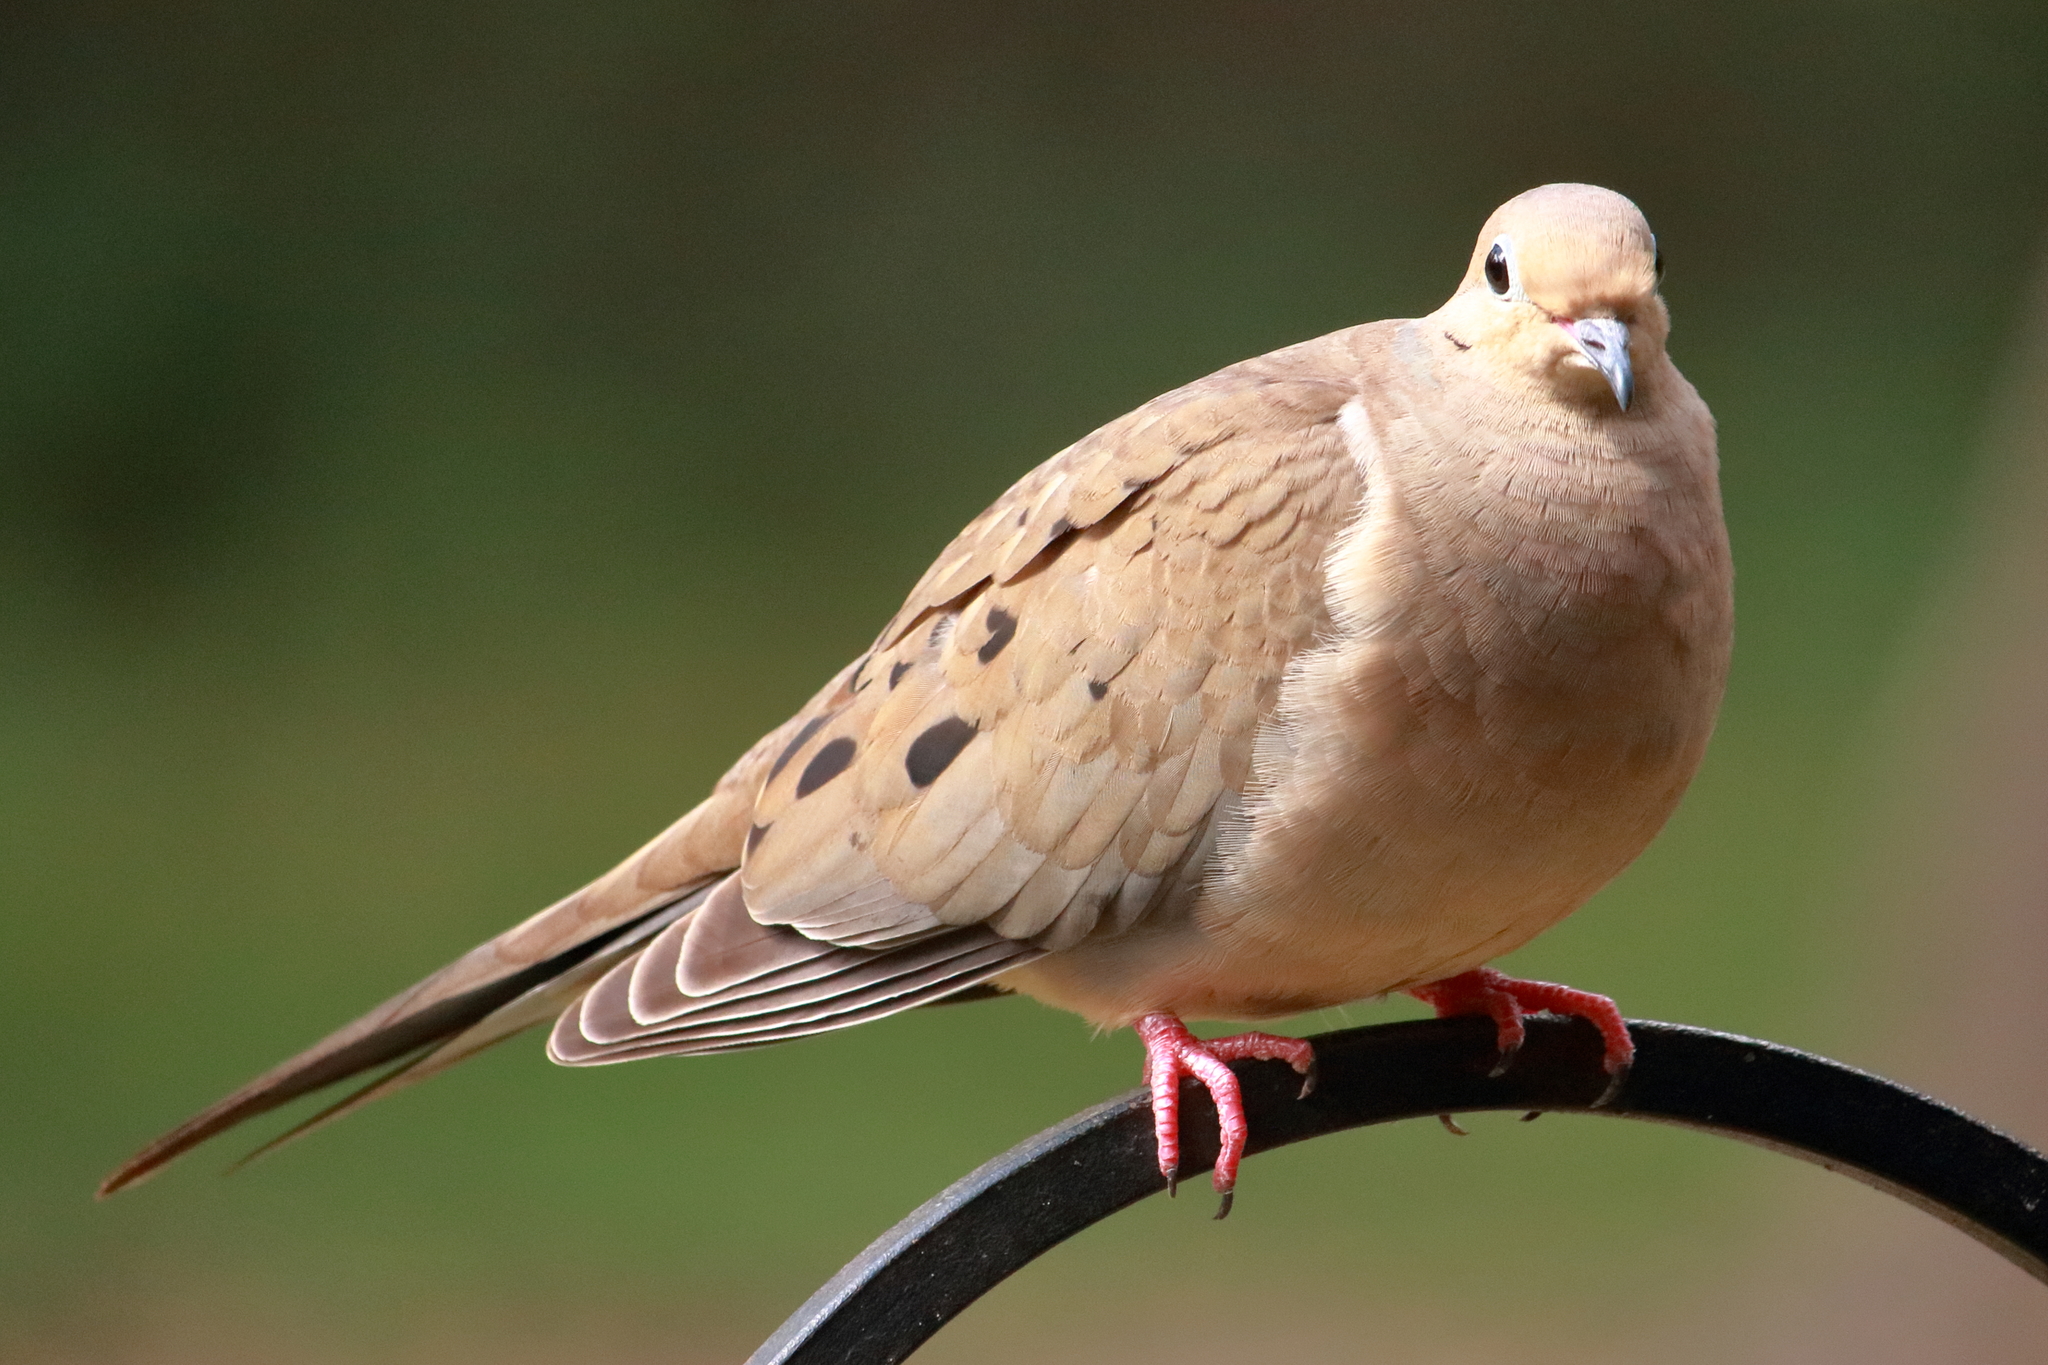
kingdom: Animalia
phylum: Chordata
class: Aves
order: Columbiformes
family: Columbidae
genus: Zenaida
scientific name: Zenaida macroura
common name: Mourning dove
